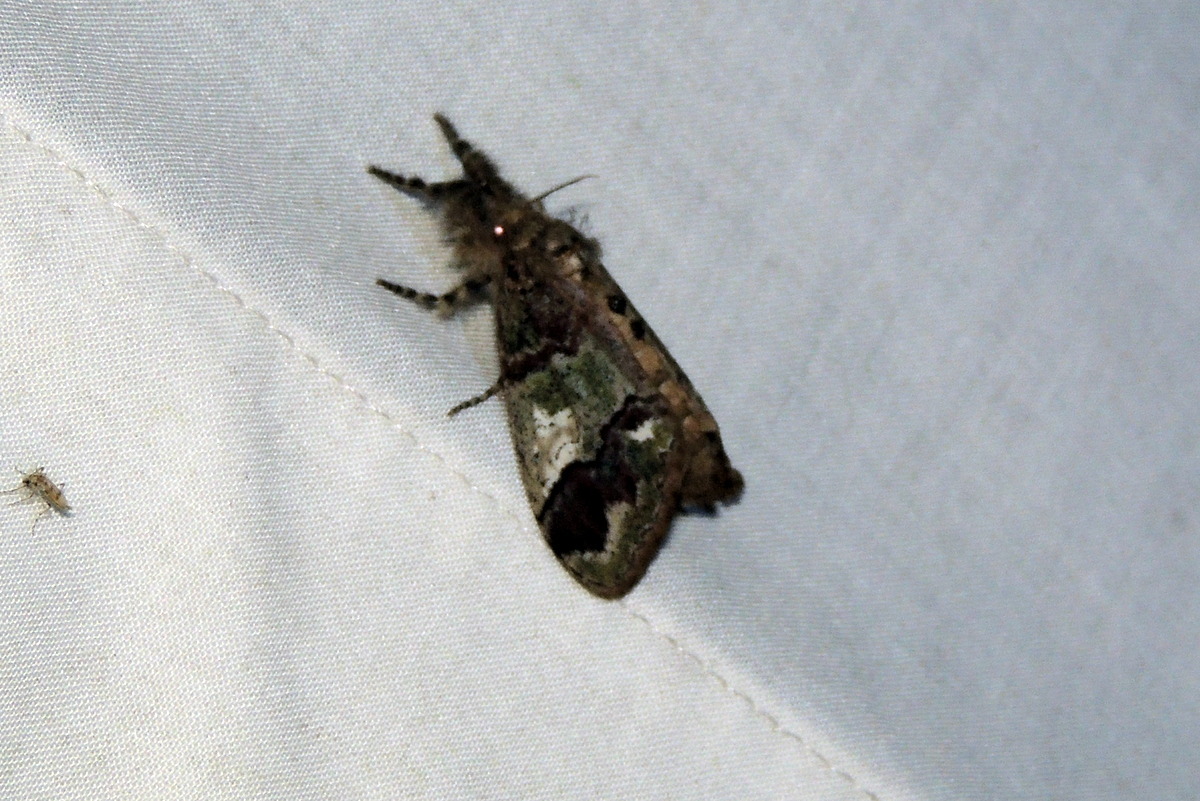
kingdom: Animalia
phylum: Arthropoda
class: Insecta
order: Lepidoptera
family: Erebidae
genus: Dasychira
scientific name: Dasychira basiflava
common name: Yellow-based tussock moth
